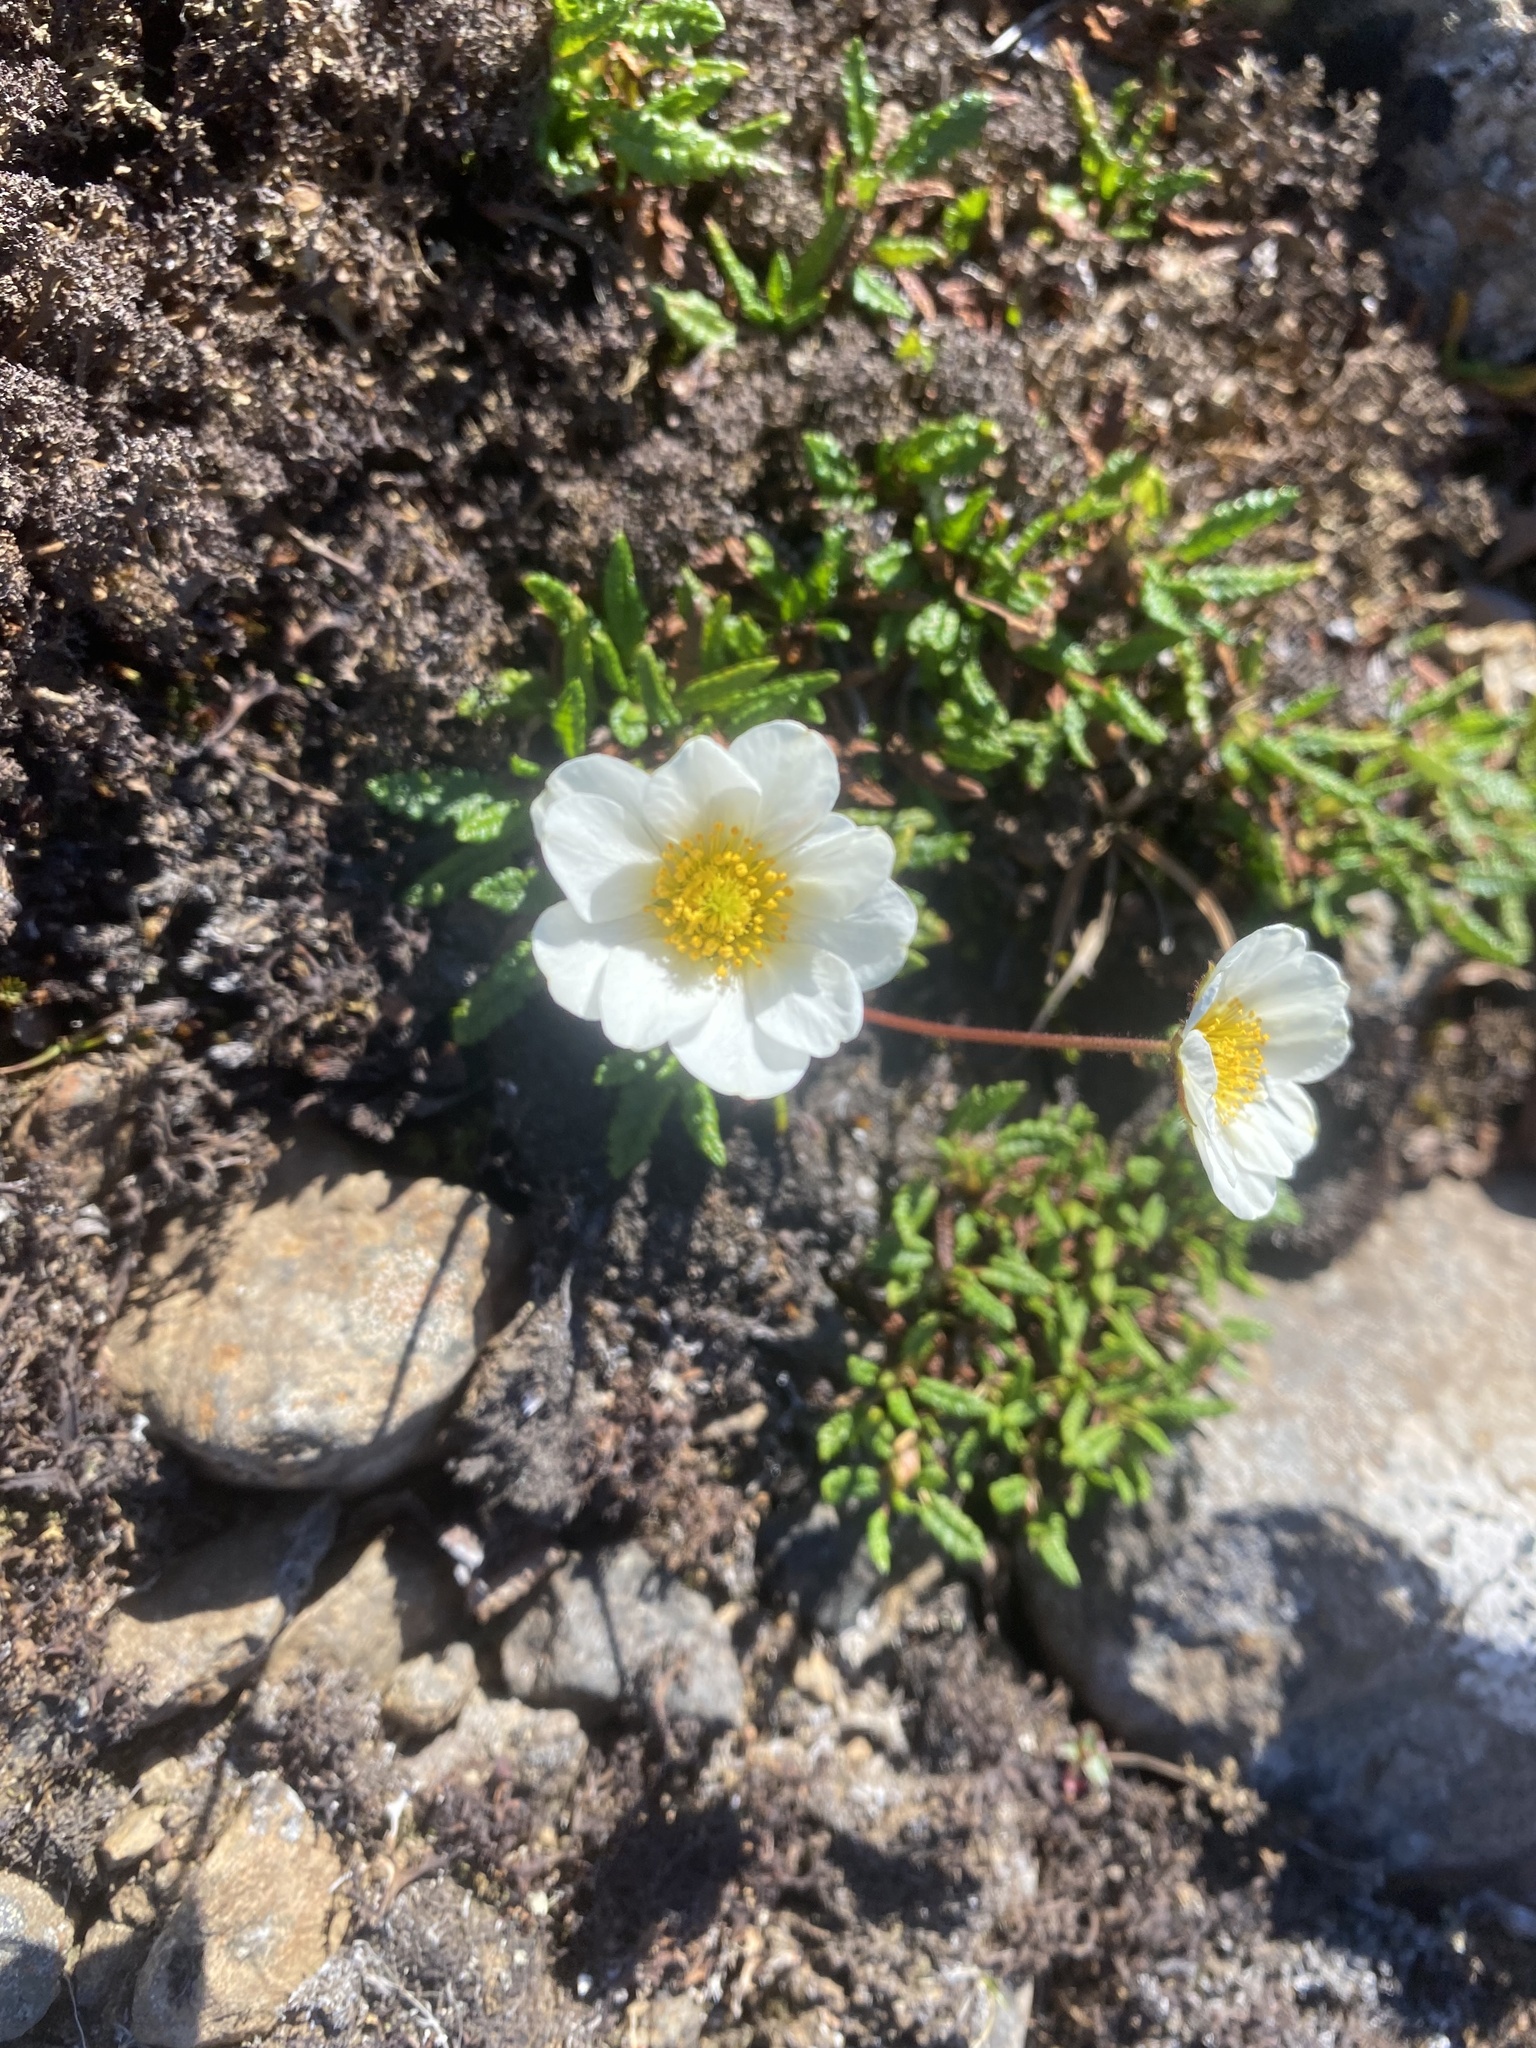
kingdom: Plantae
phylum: Tracheophyta
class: Magnoliopsida
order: Rosales
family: Rosaceae
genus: Dryas
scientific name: Dryas octopetala
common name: Eight-petal mountain-avens
